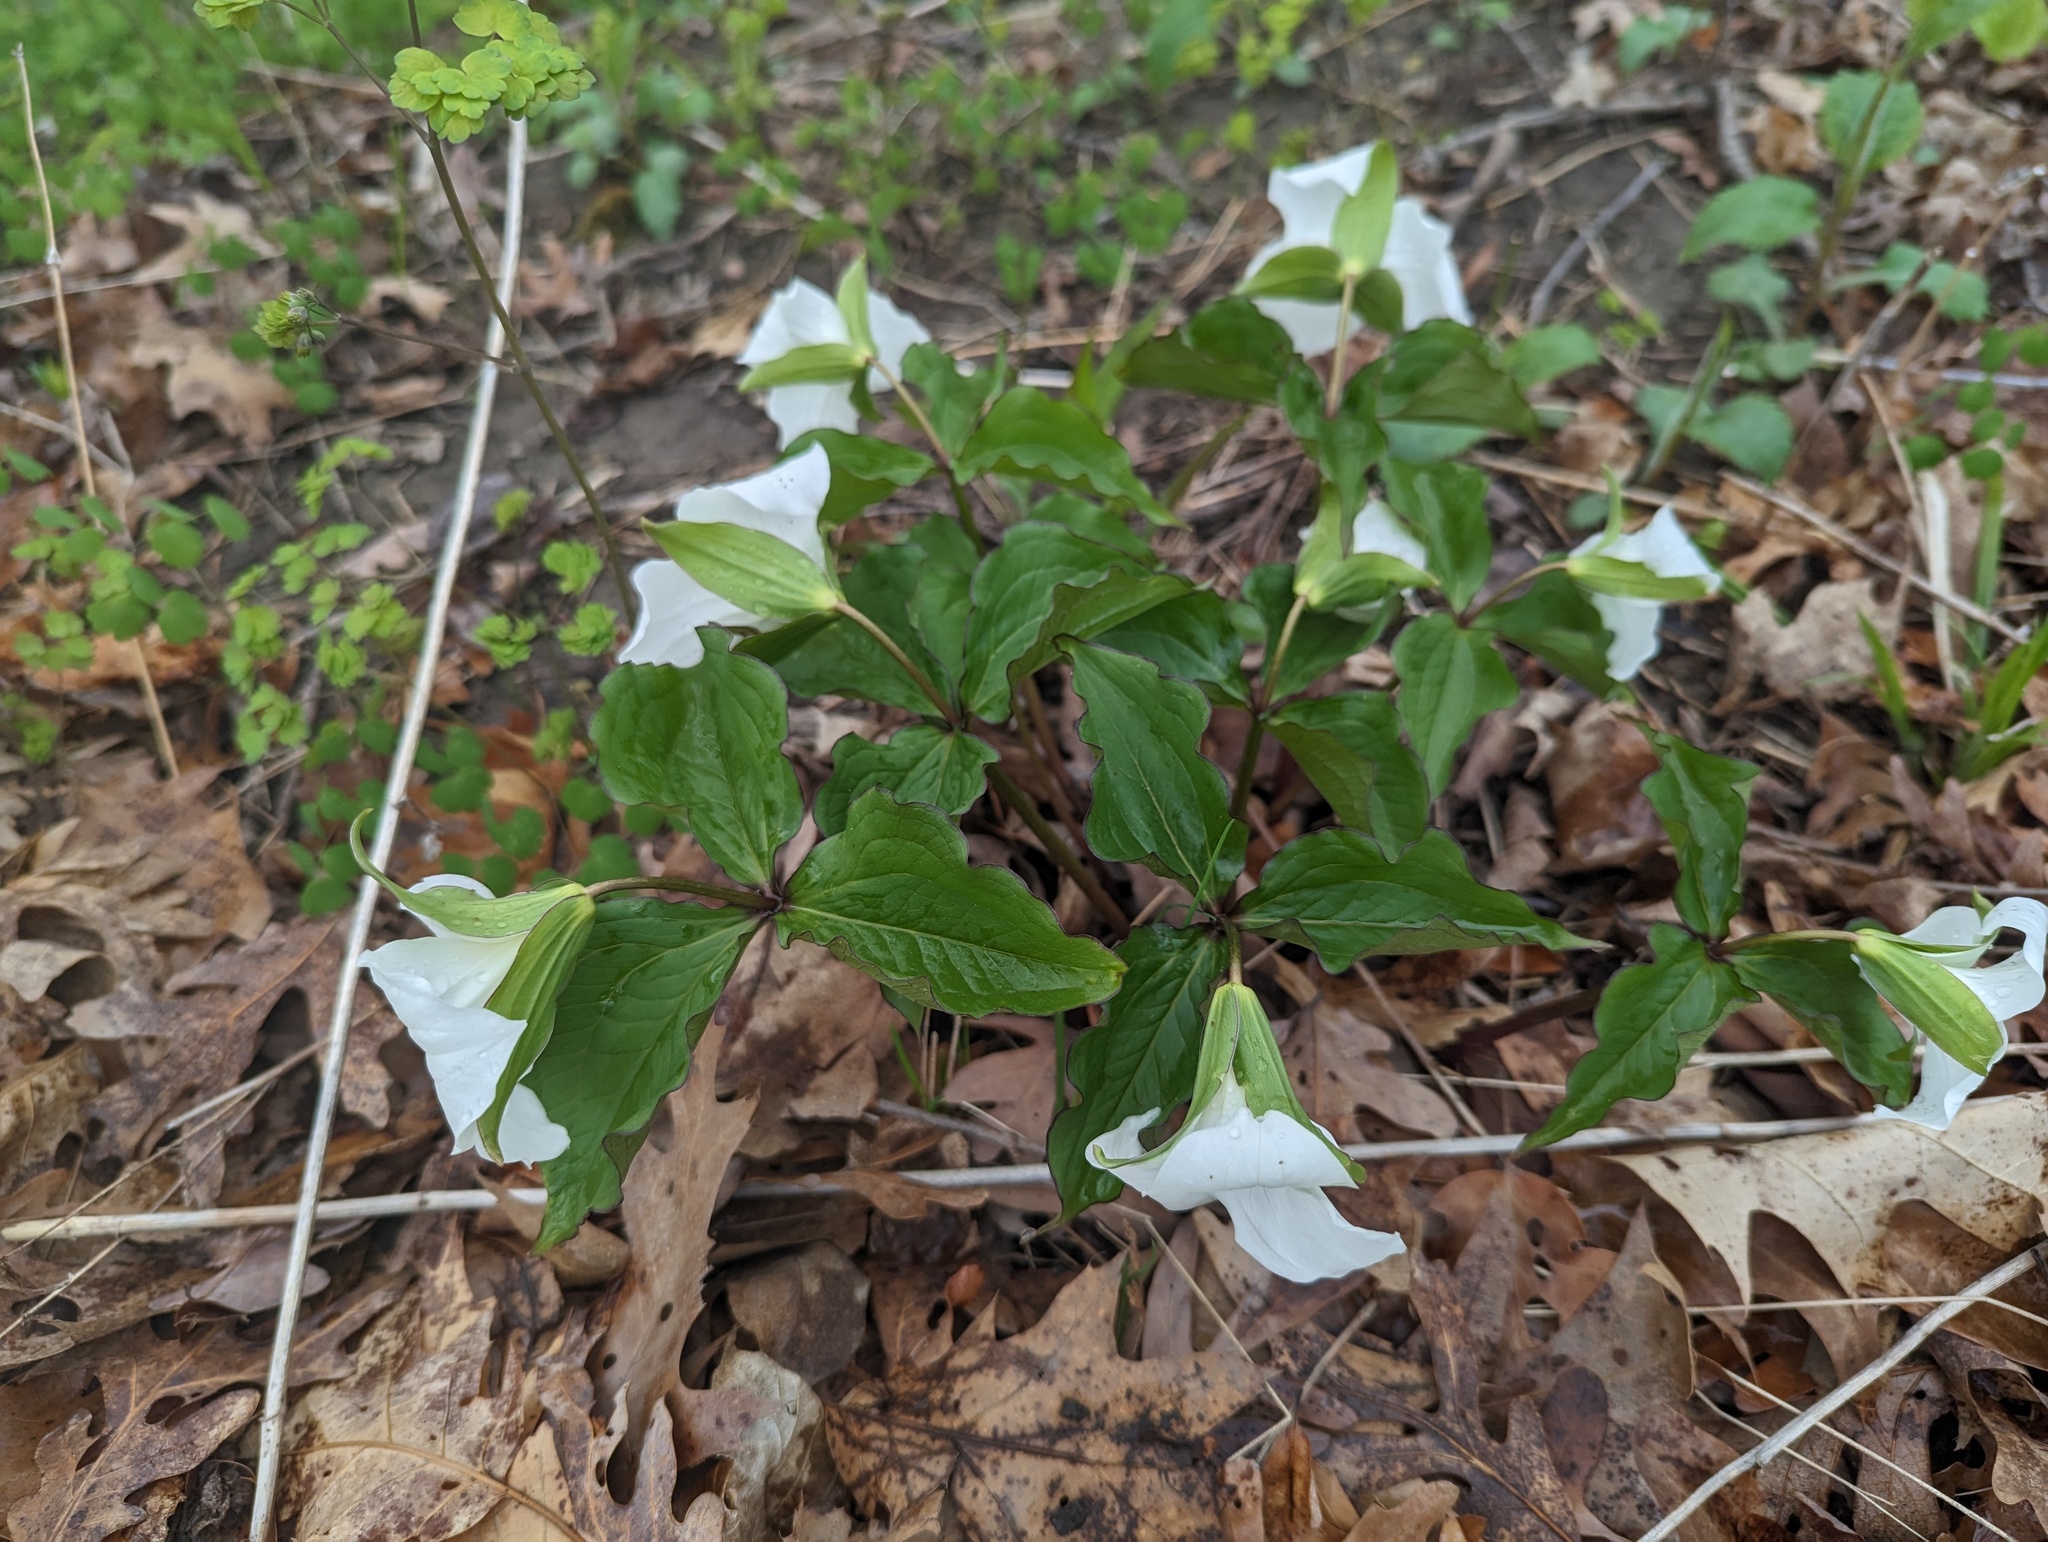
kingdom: Plantae
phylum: Tracheophyta
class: Liliopsida
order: Liliales
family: Melanthiaceae
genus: Trillium
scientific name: Trillium grandiflorum
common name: Great white trillium
